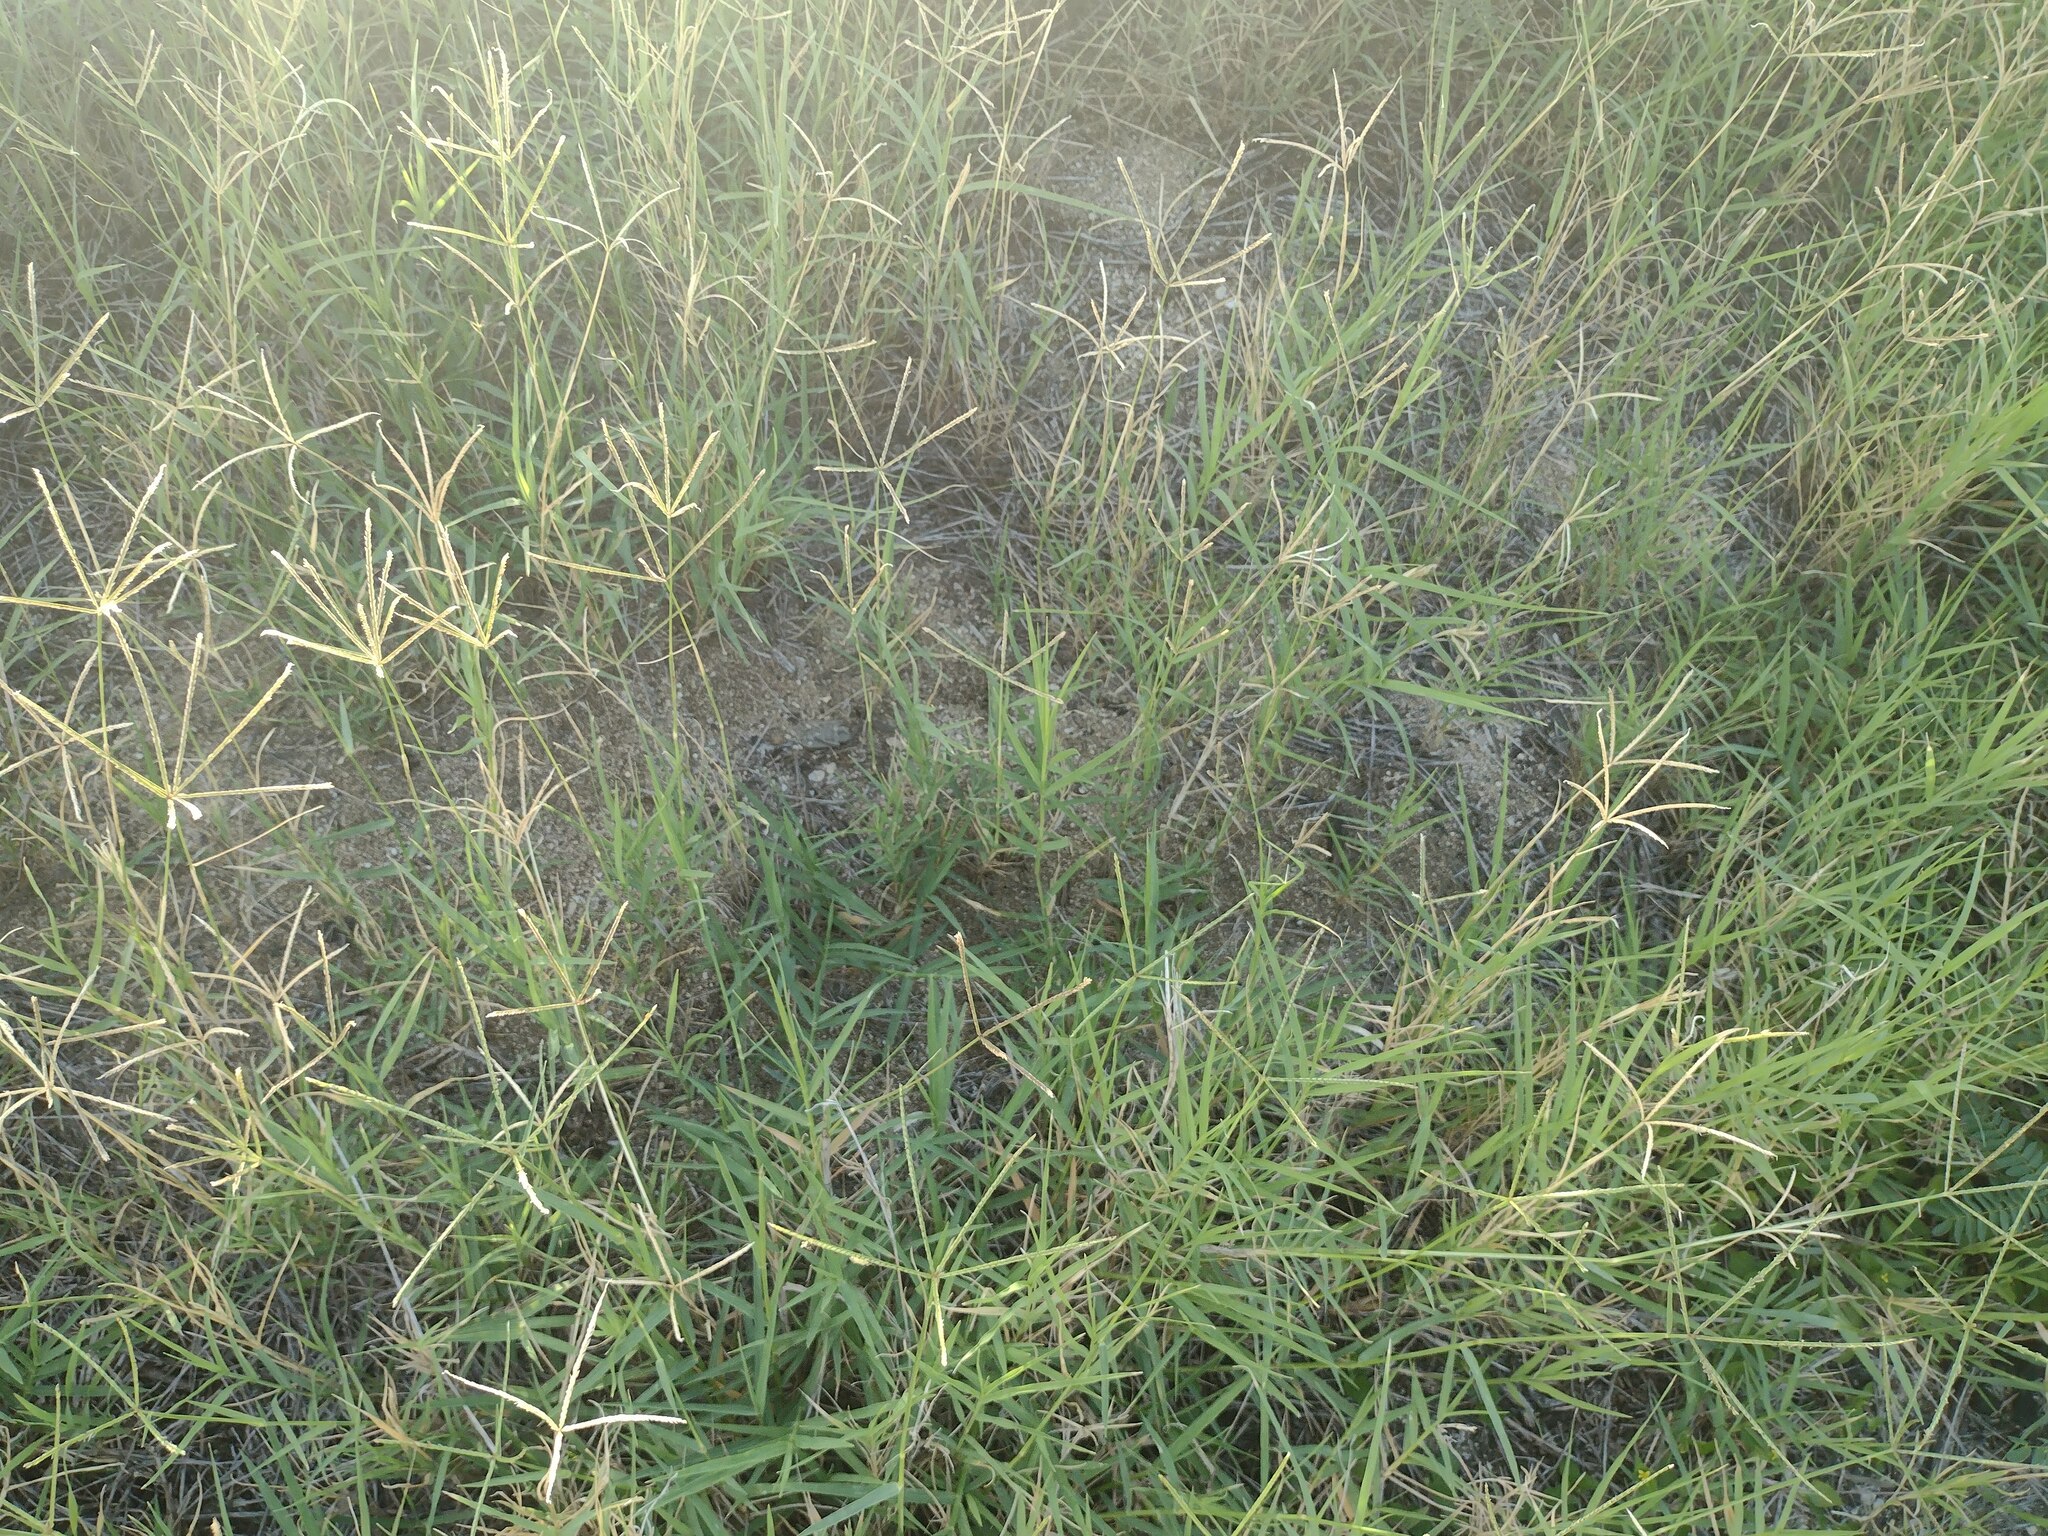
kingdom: Plantae
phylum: Tracheophyta
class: Liliopsida
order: Poales
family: Poaceae
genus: Cynodon
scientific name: Cynodon dactylon
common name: Bermuda grass
